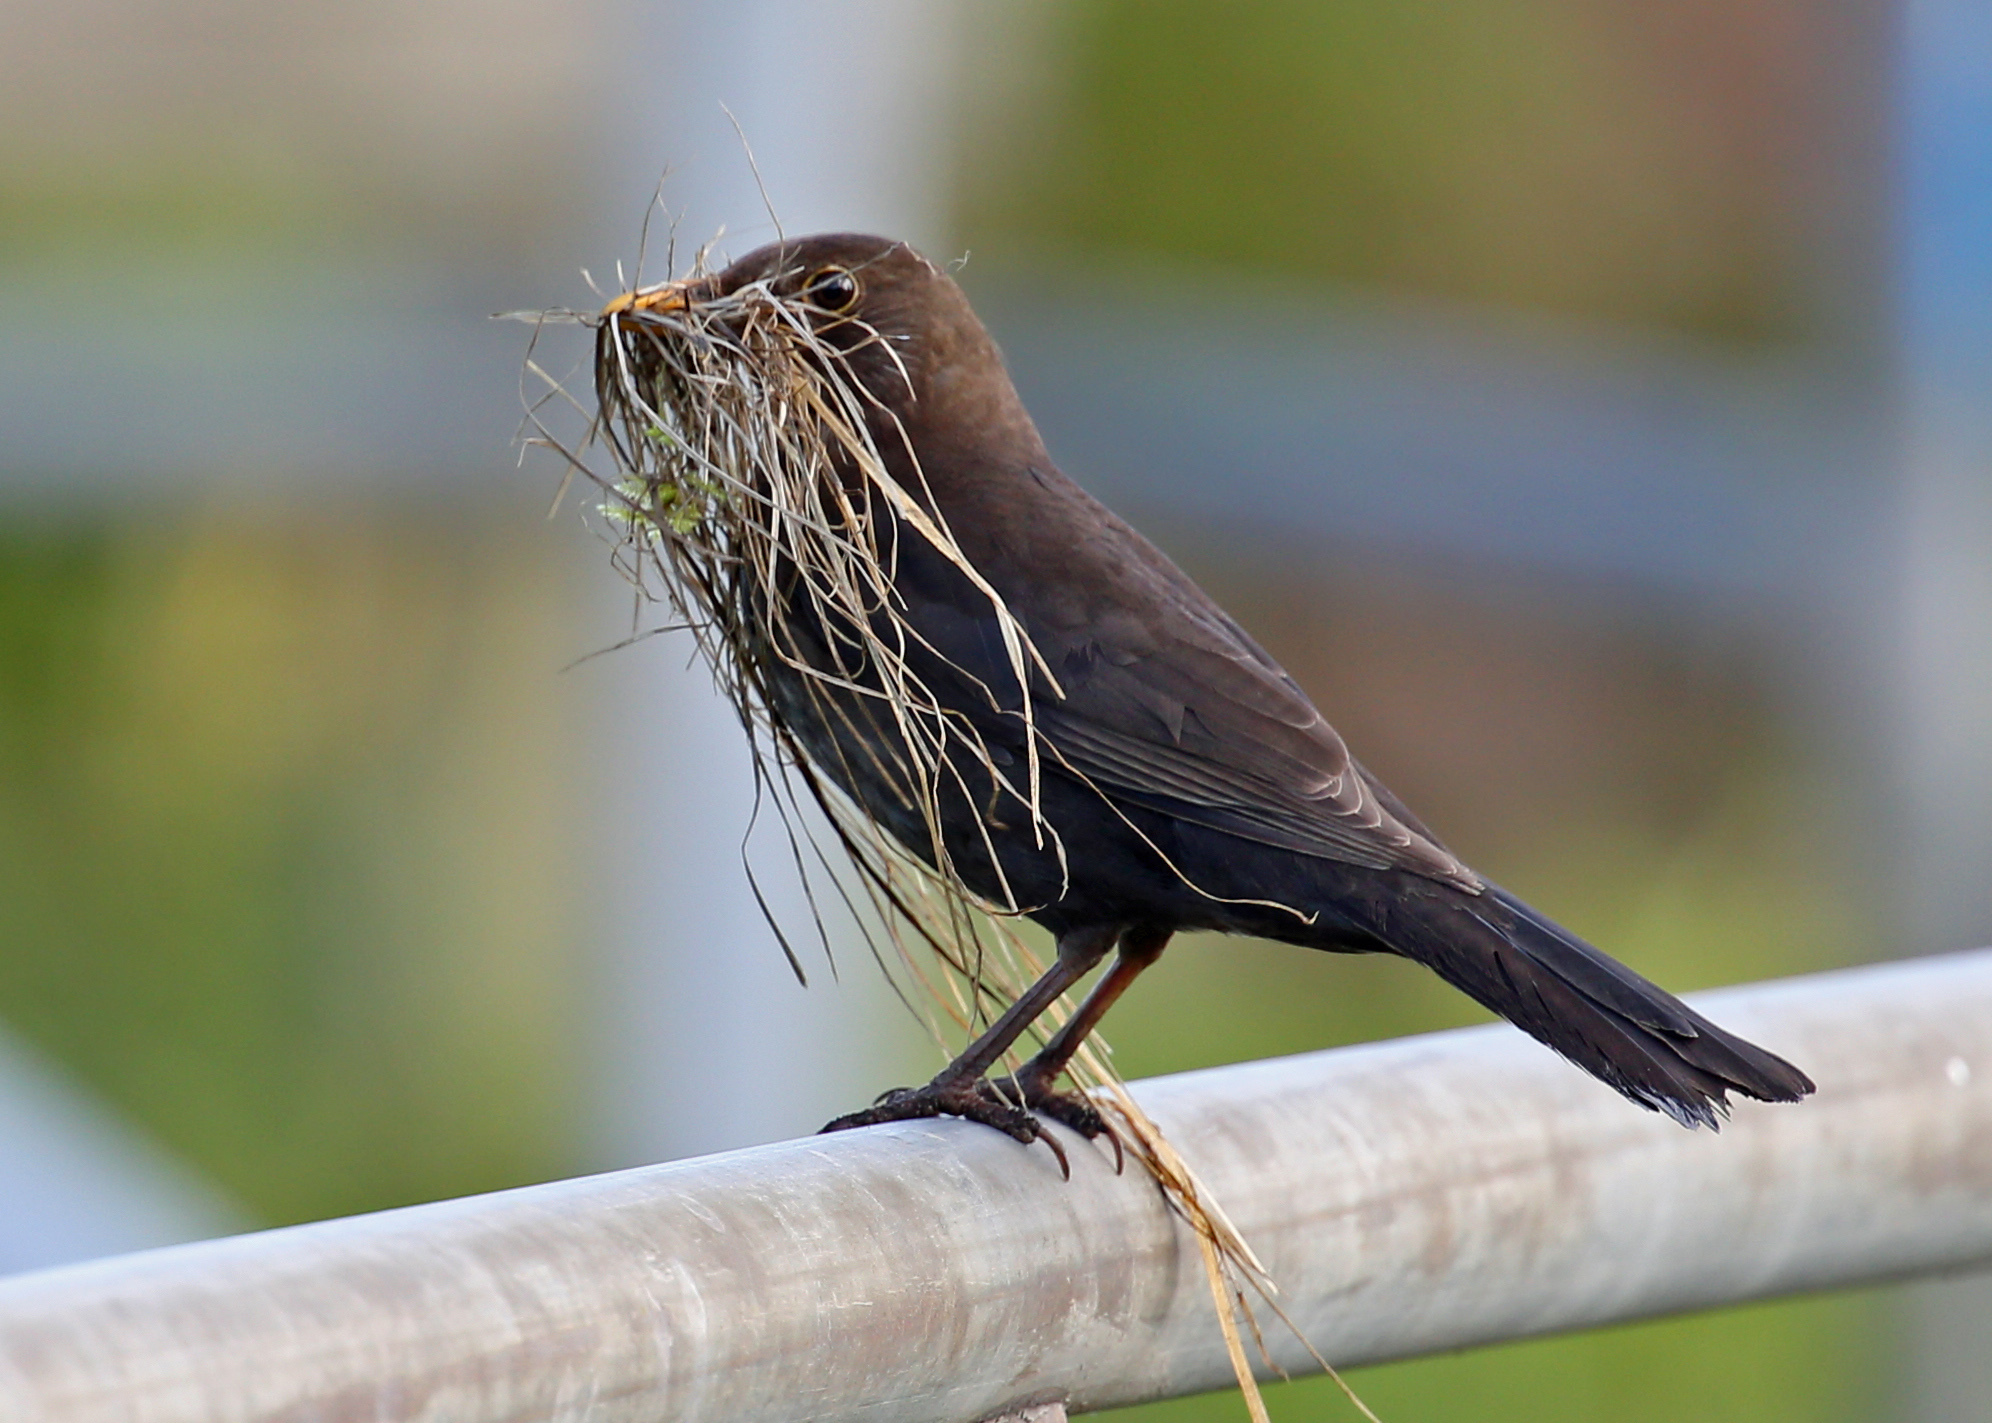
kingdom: Animalia
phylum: Chordata
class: Aves
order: Passeriformes
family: Turdidae
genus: Turdus
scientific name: Turdus merula
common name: Common blackbird
